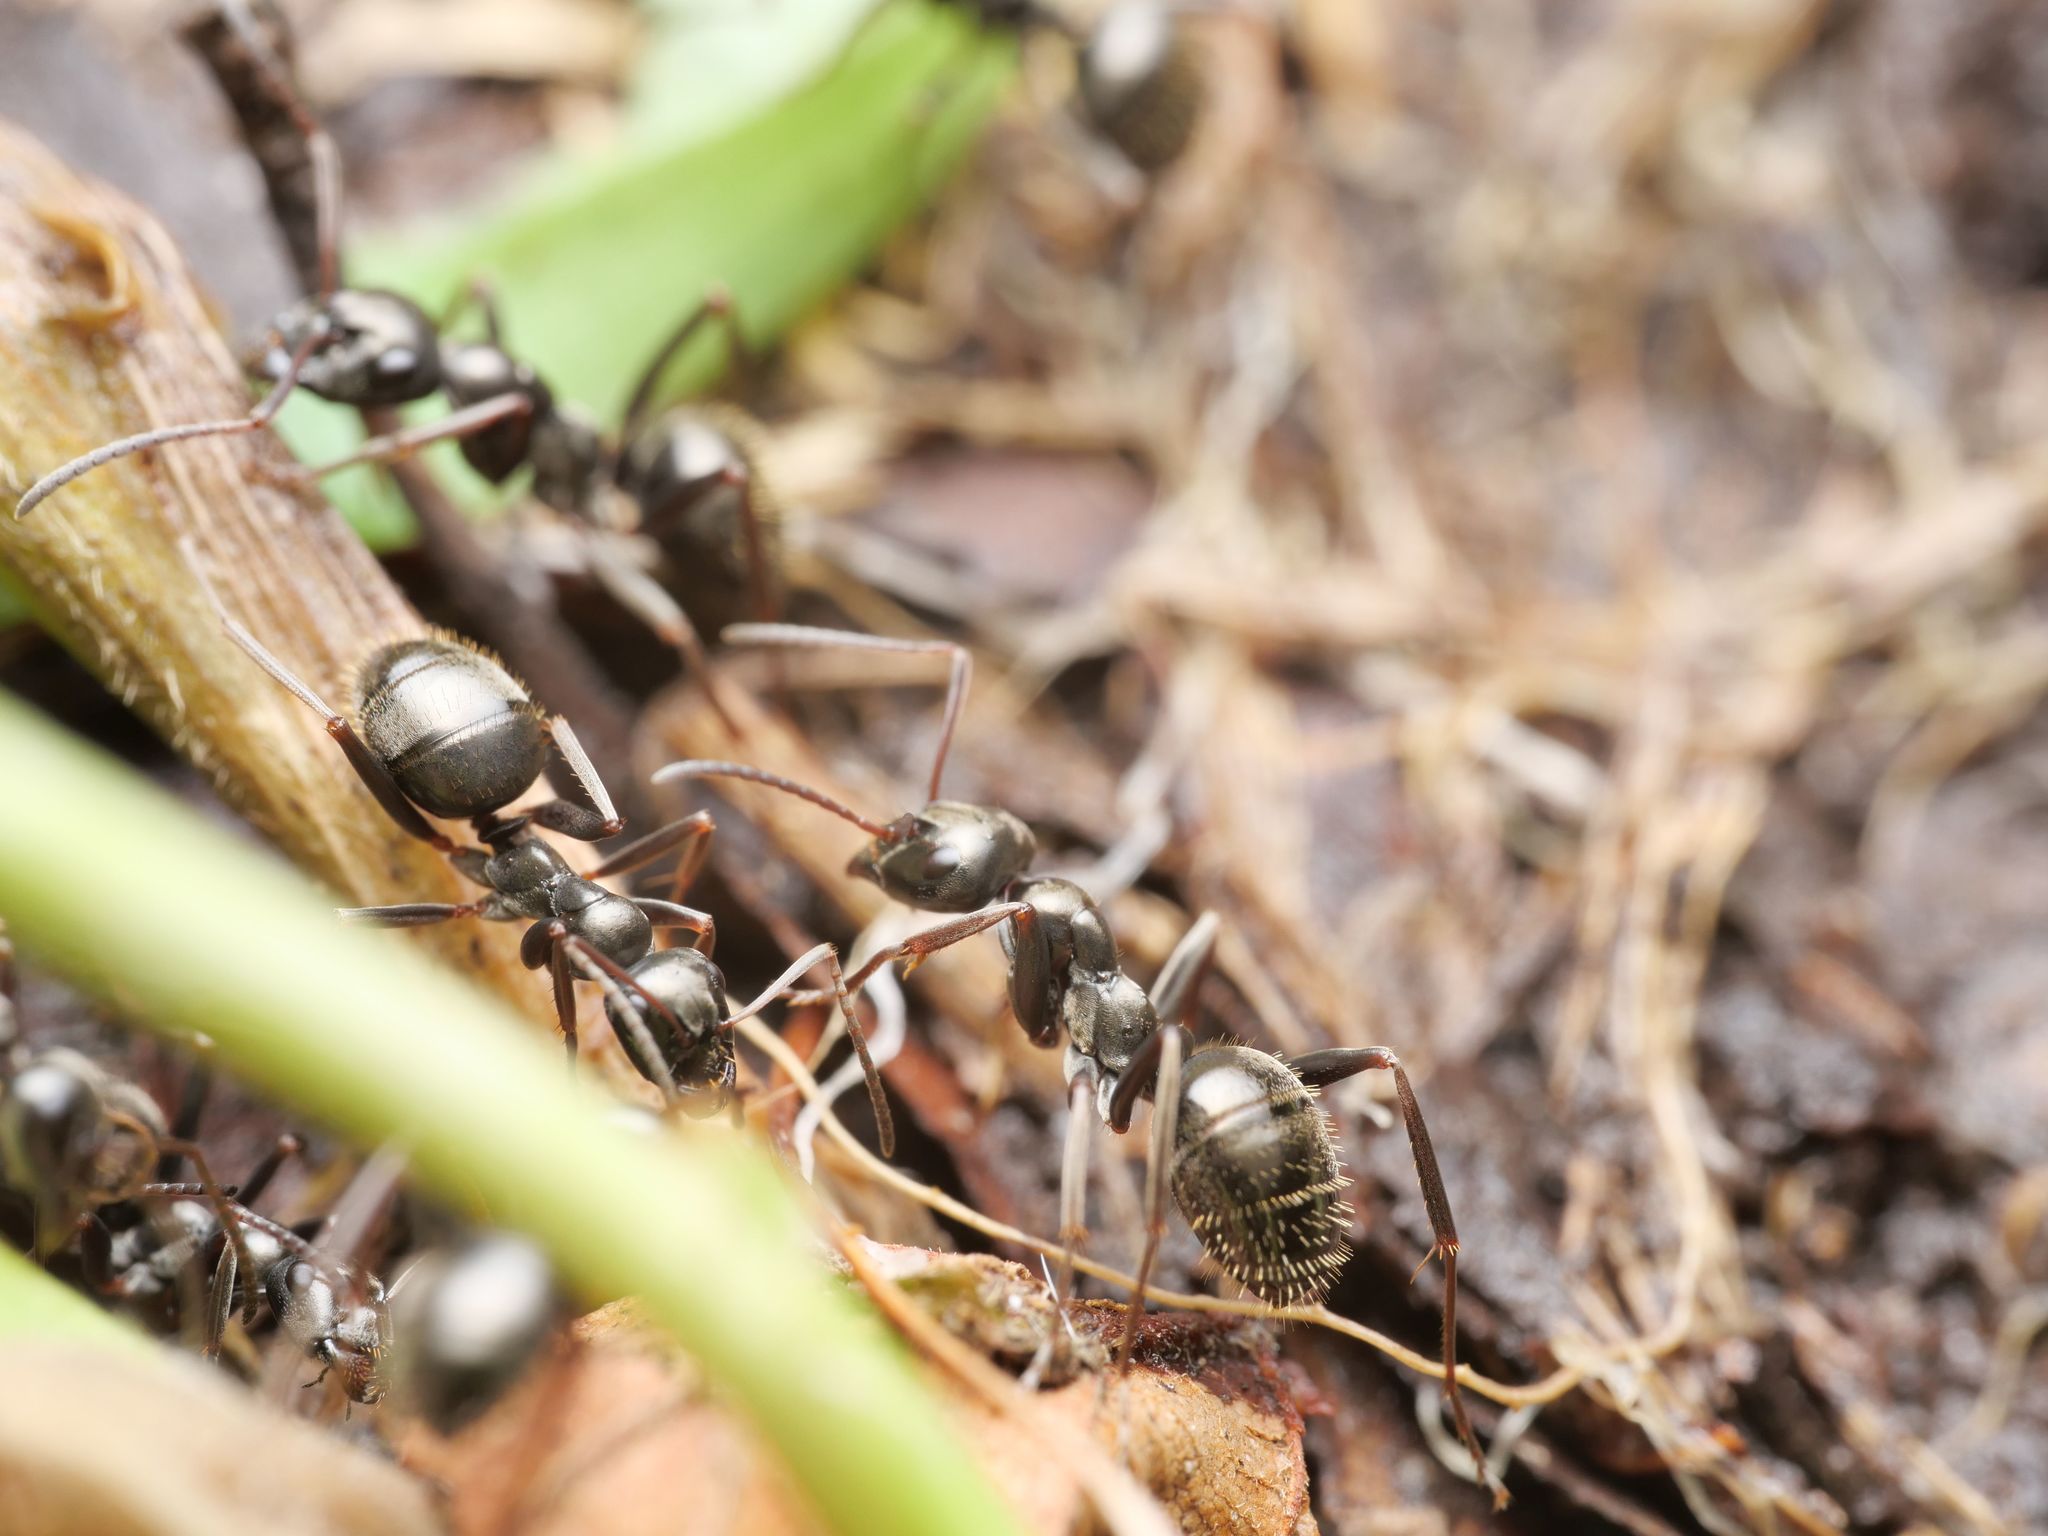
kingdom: Animalia
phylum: Arthropoda
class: Insecta
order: Hymenoptera
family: Formicidae
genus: Formica
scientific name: Formica gagates
